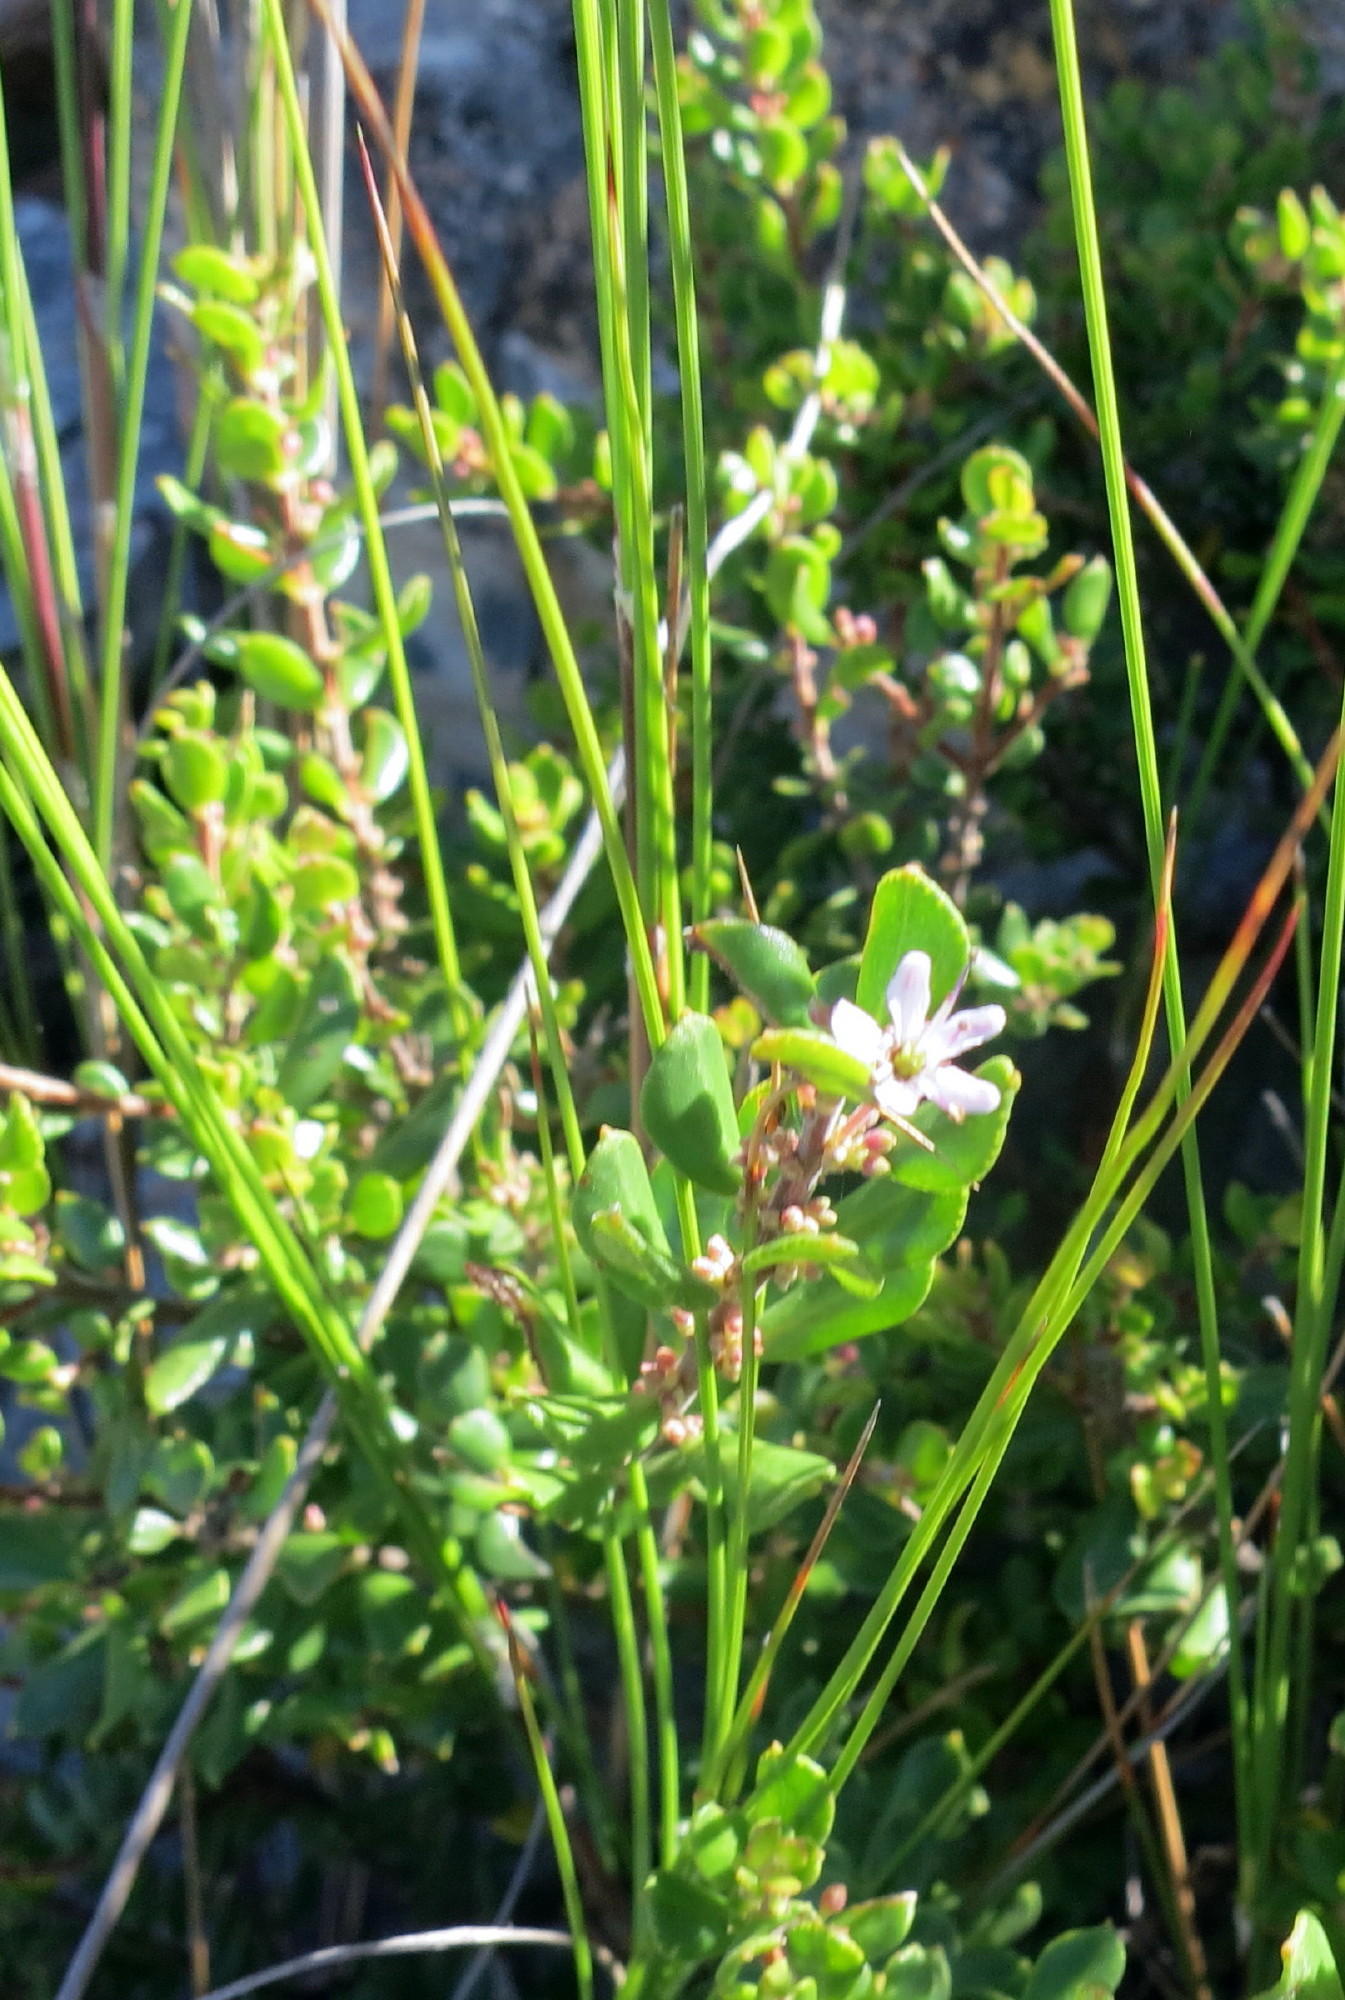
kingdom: Plantae
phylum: Tracheophyta
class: Magnoliopsida
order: Sapindales
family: Rutaceae
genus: Agathosma
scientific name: Agathosma ovata
